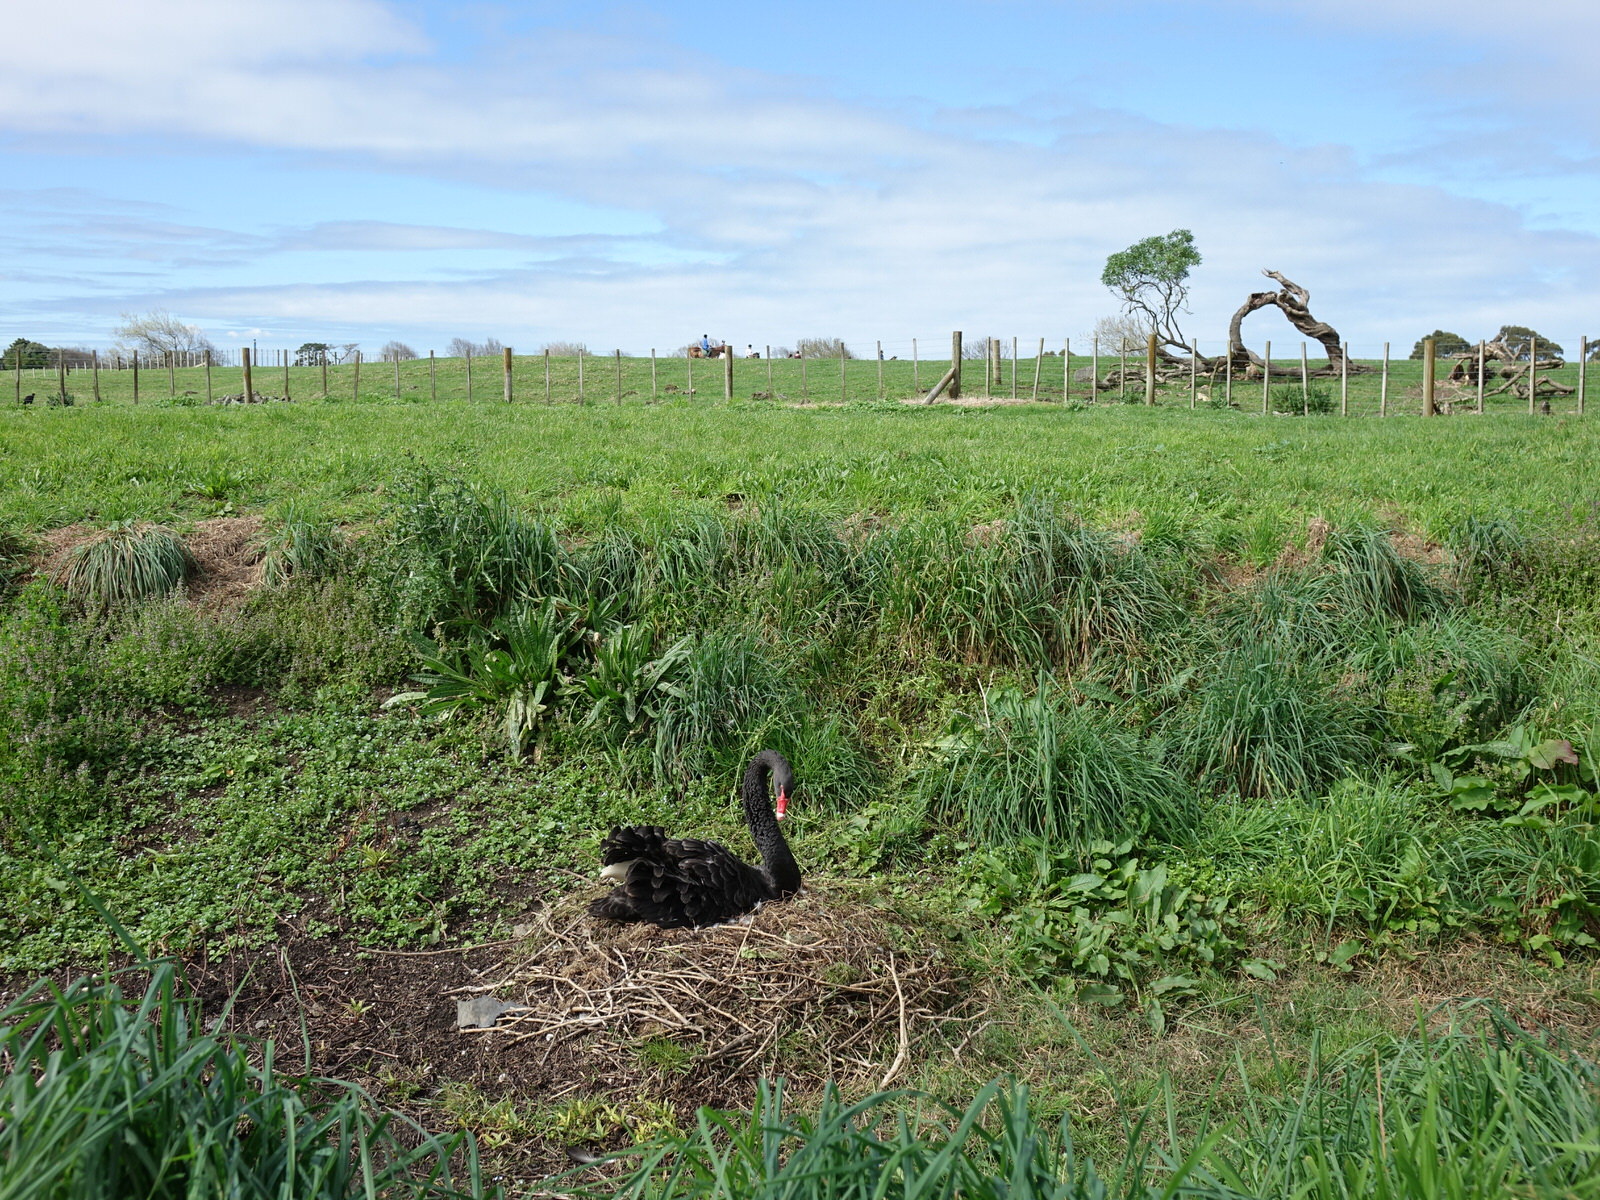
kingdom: Animalia
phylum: Chordata
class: Aves
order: Anseriformes
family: Anatidae
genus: Cygnus
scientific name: Cygnus atratus
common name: Black swan
